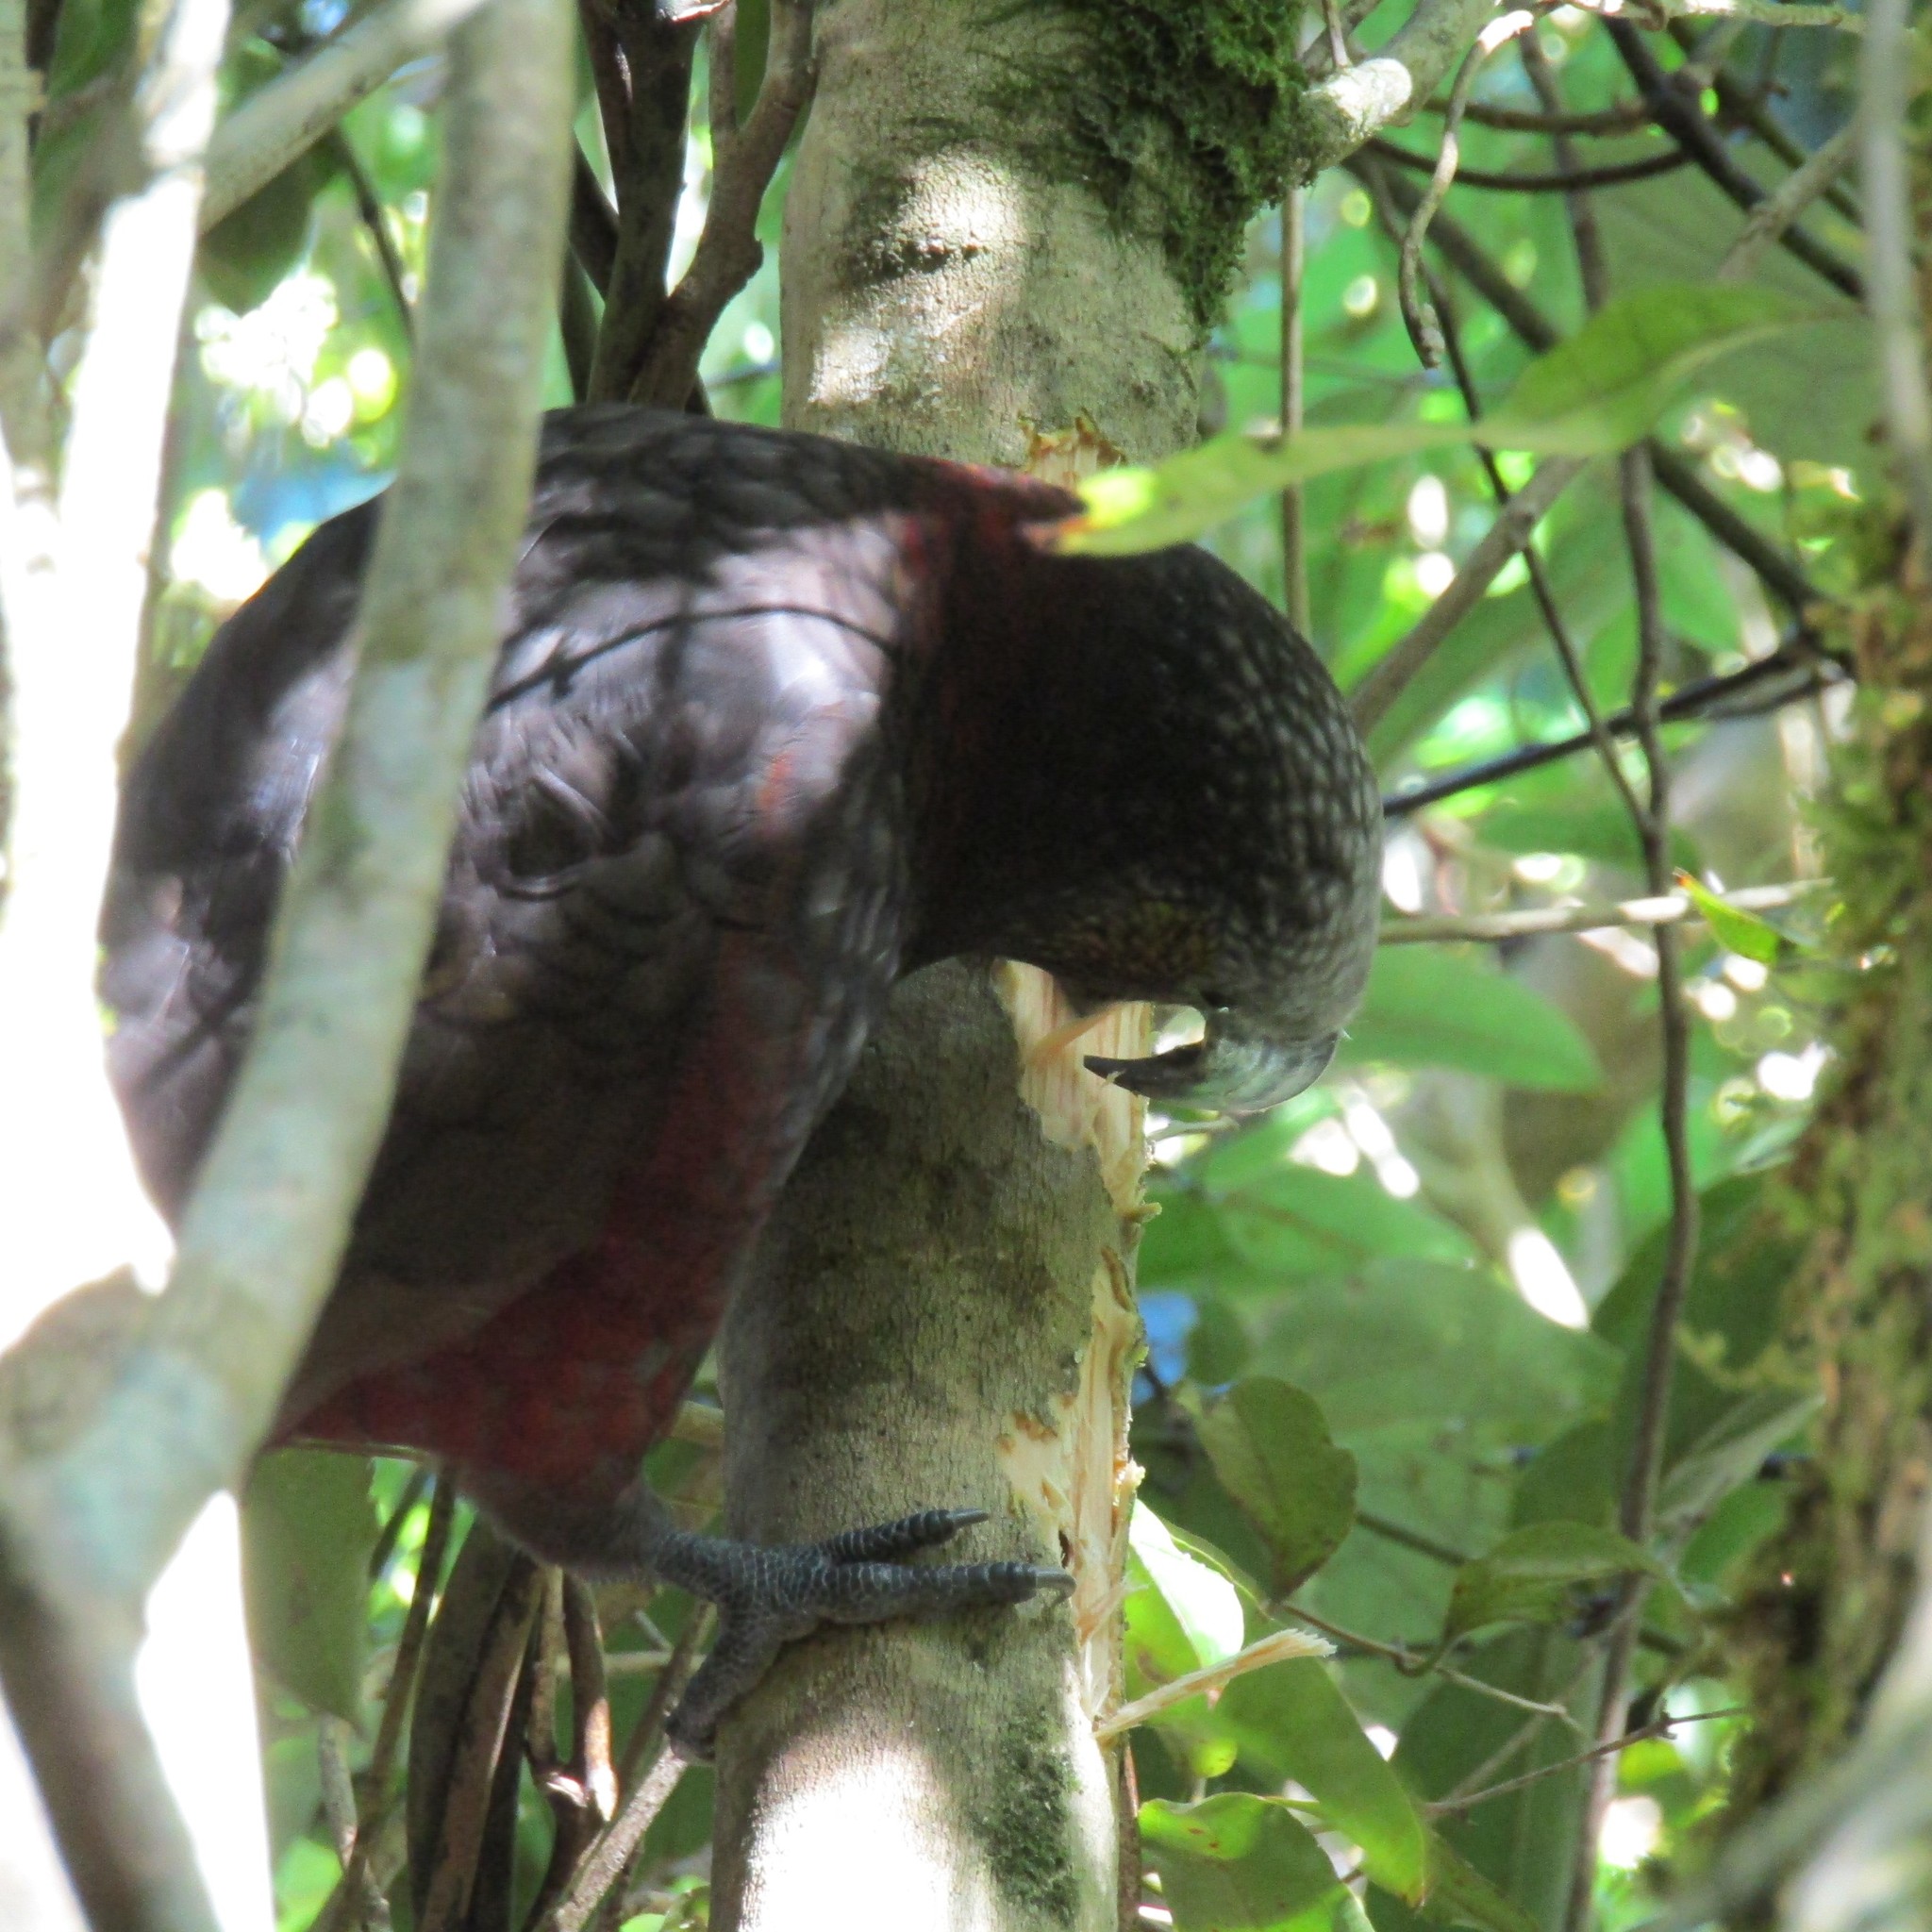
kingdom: Animalia
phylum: Chordata
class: Aves
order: Psittaciformes
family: Psittacidae
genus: Nestor
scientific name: Nestor meridionalis
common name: New zealand kaka
